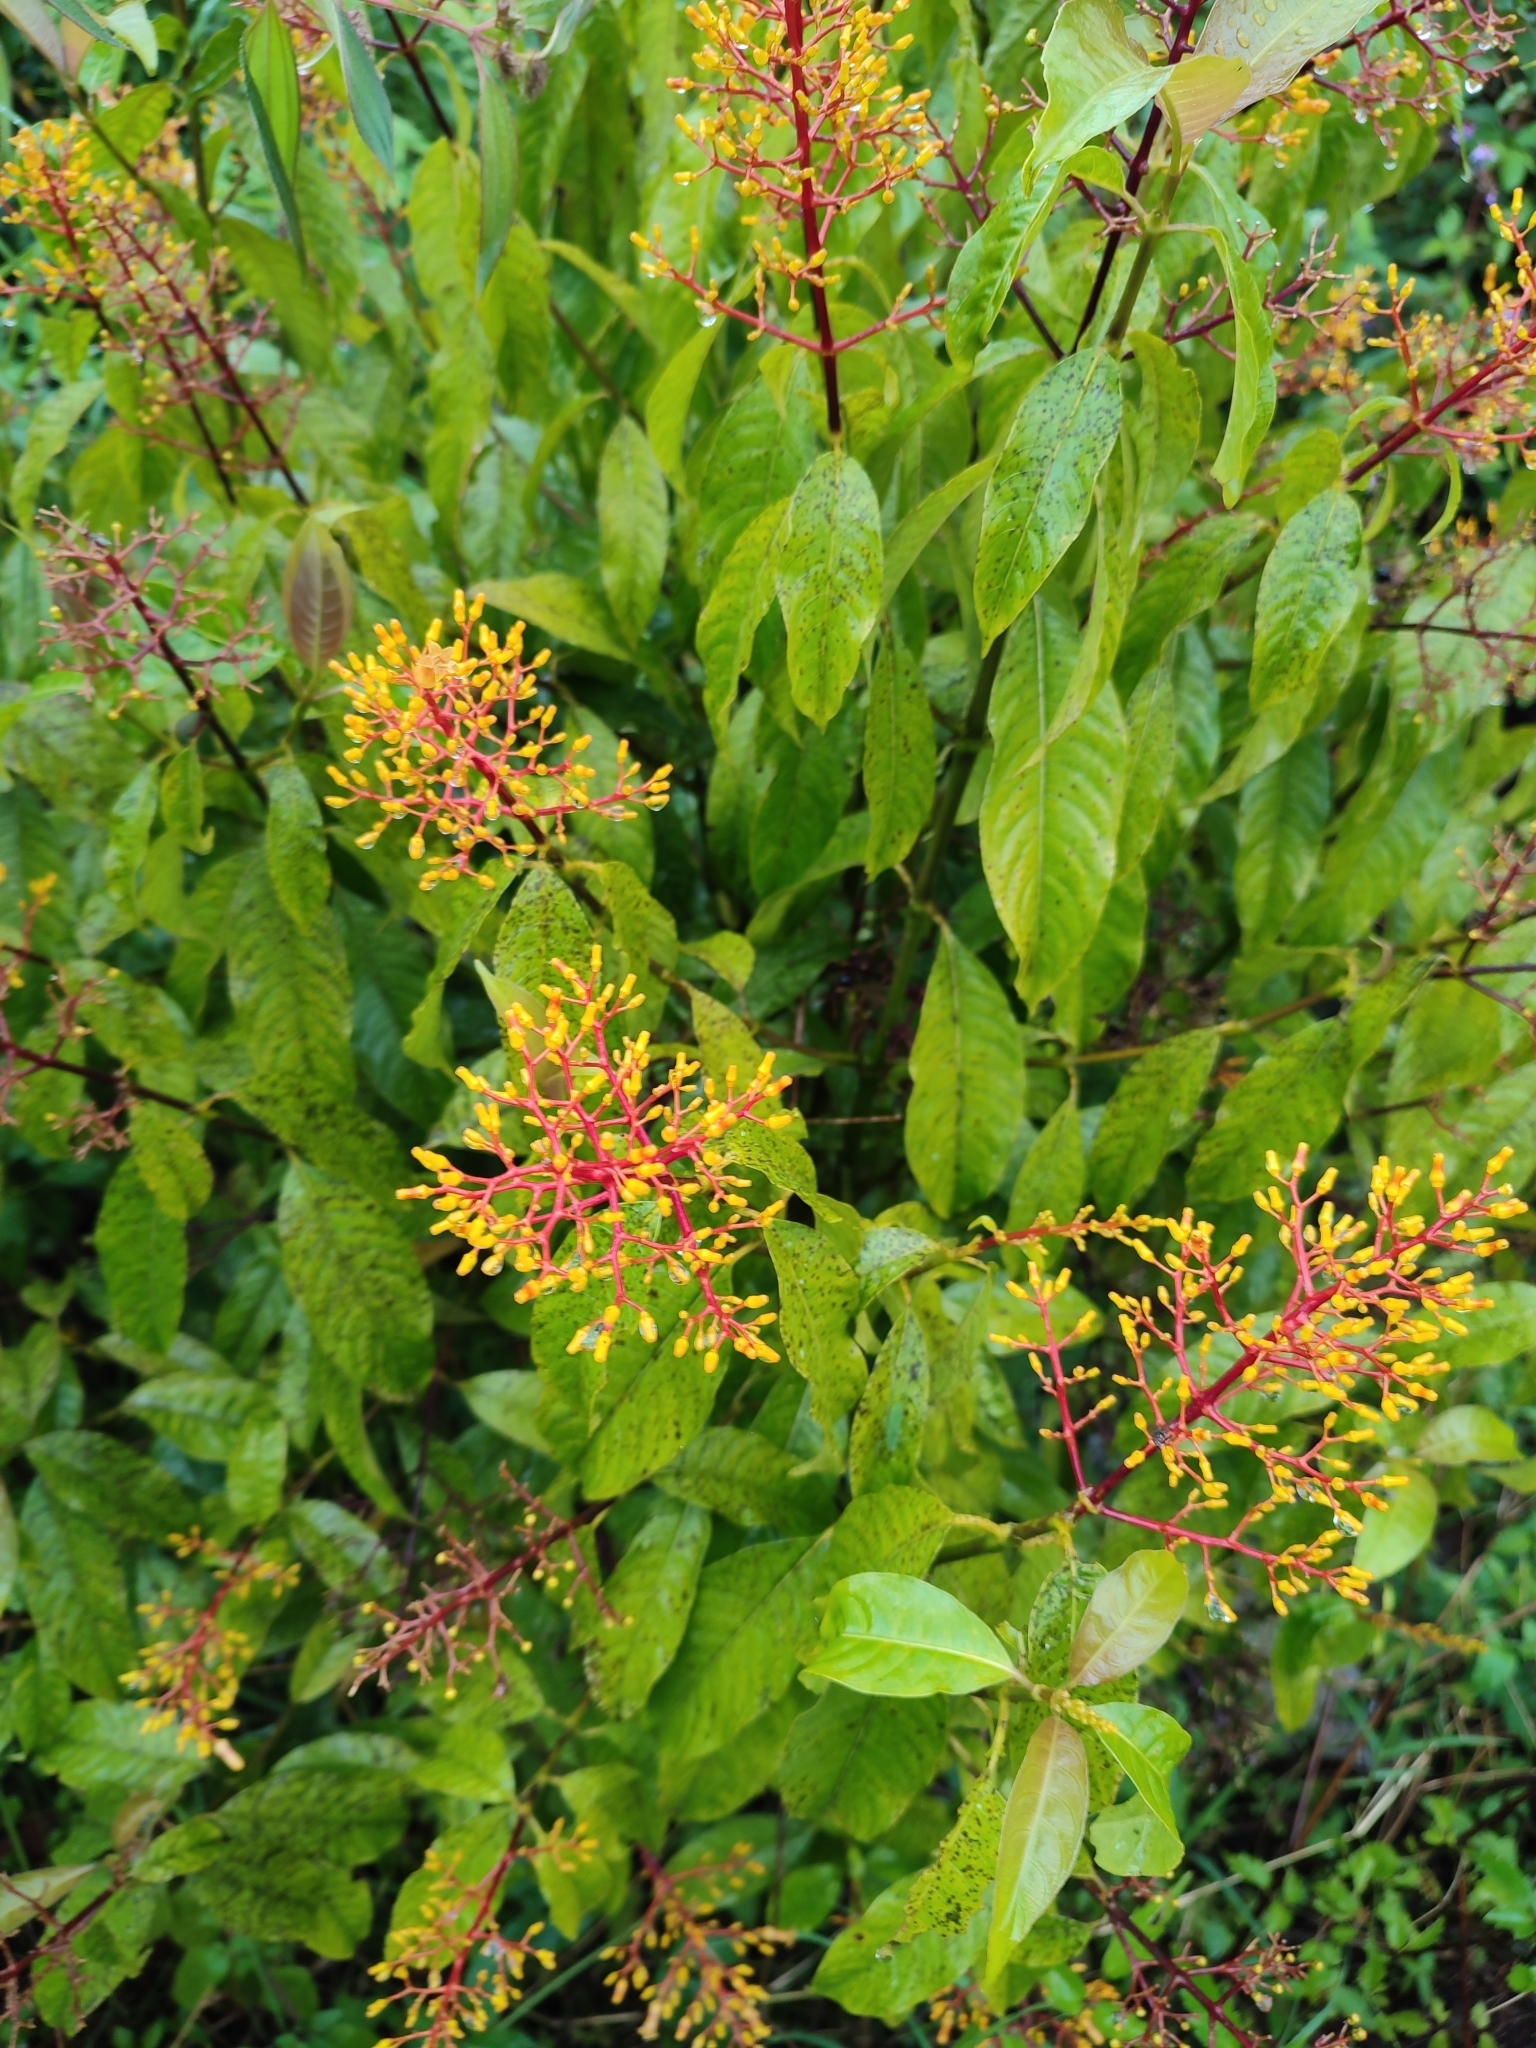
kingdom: Plantae
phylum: Tracheophyta
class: Magnoliopsida
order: Gentianales
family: Rubiaceae
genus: Palicourea
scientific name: Palicourea padifolia
